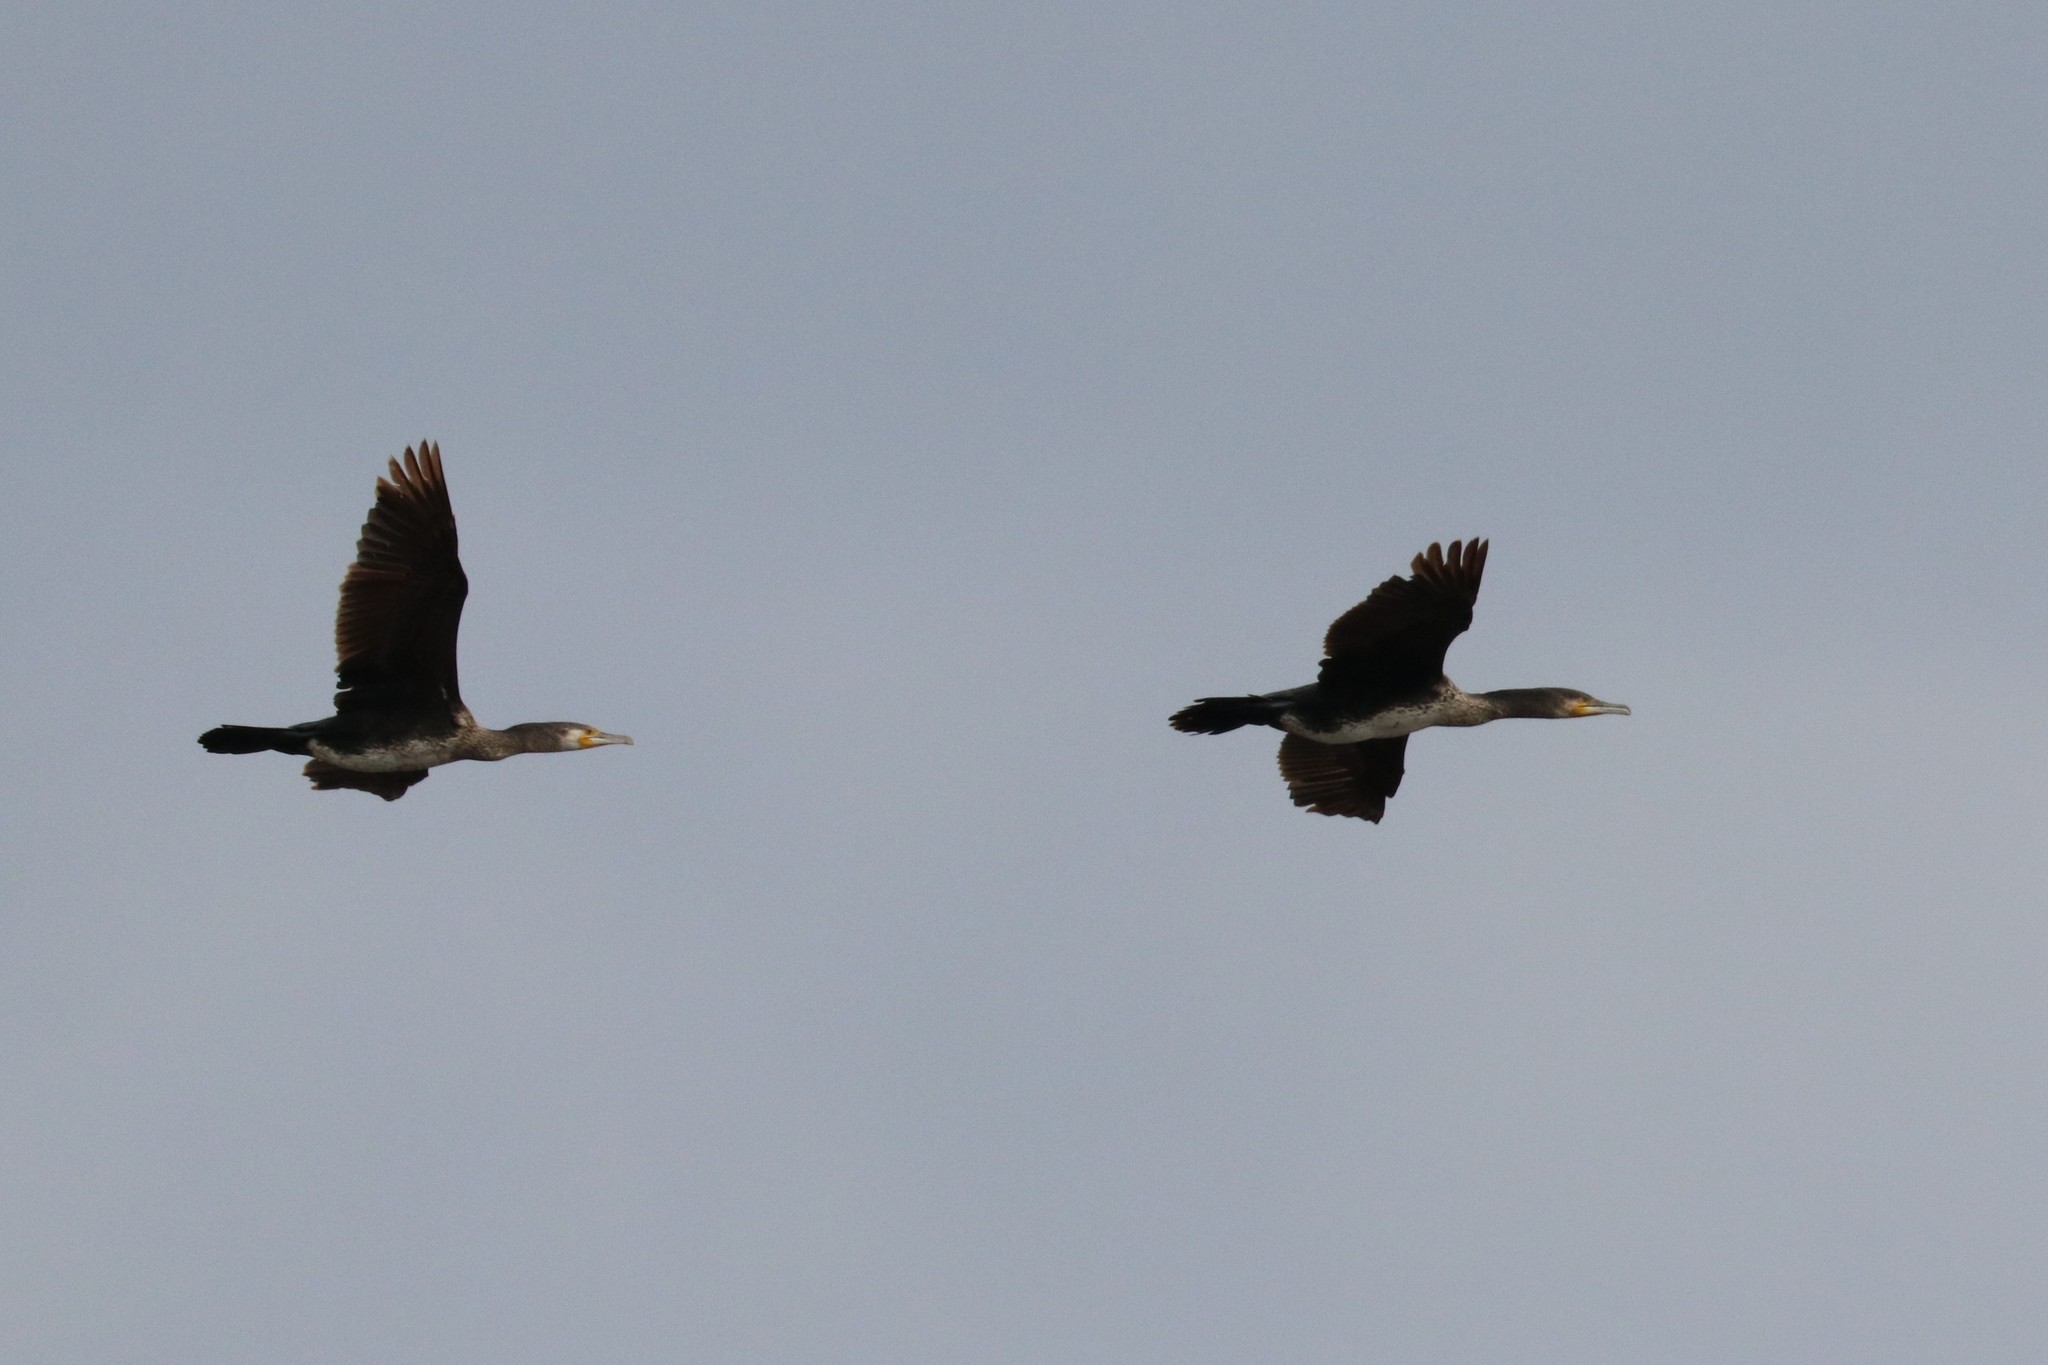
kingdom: Animalia
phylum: Chordata
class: Aves
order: Suliformes
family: Phalacrocoracidae
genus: Phalacrocorax
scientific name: Phalacrocorax carbo
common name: Great cormorant
